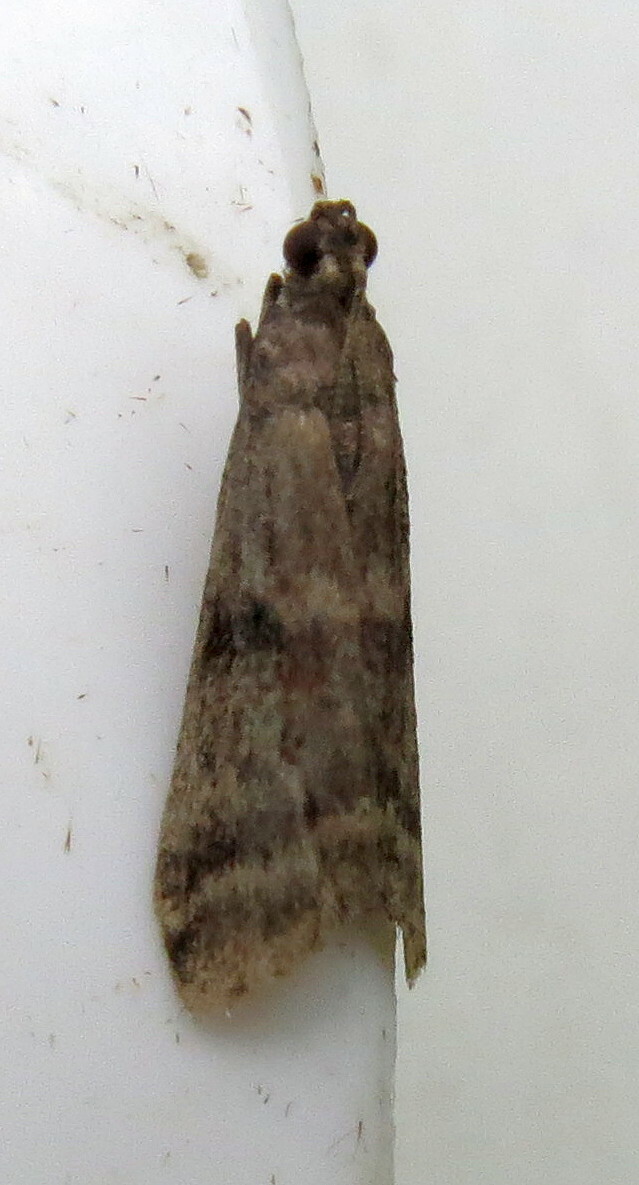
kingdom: Animalia
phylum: Arthropoda
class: Insecta
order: Lepidoptera
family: Pyralidae
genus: Ephestia
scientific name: Ephestia elutella
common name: Cacao moth
